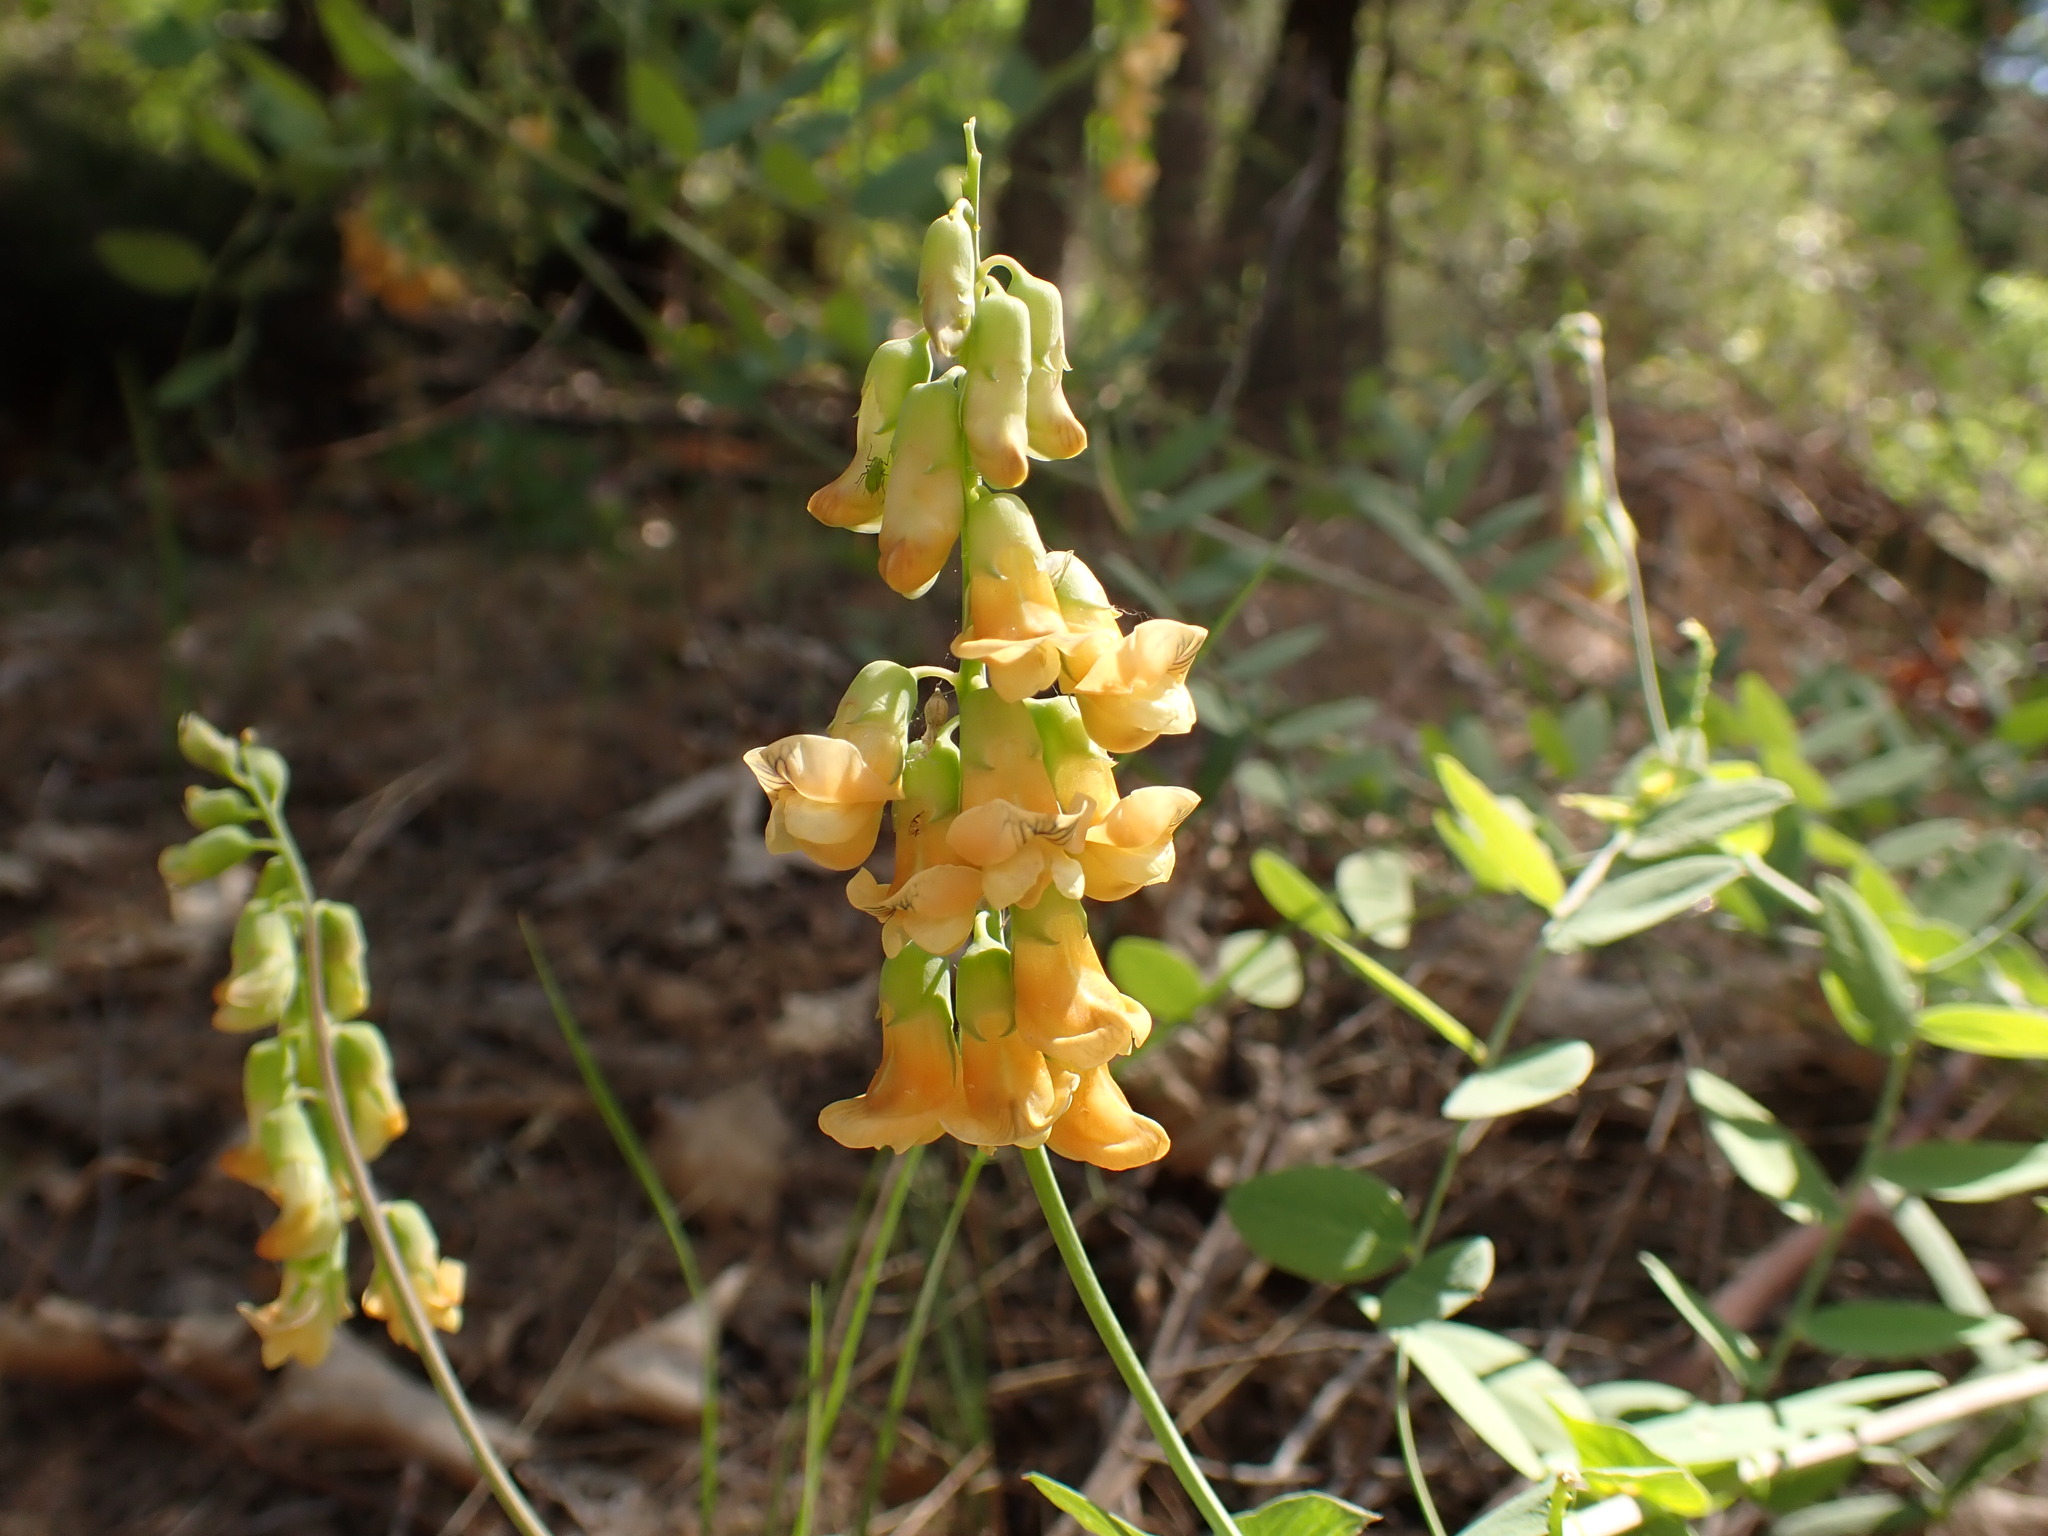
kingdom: Plantae
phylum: Tracheophyta
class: Magnoliopsida
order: Fabales
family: Fabaceae
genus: Lathyrus
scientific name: Lathyrus sulphureus
